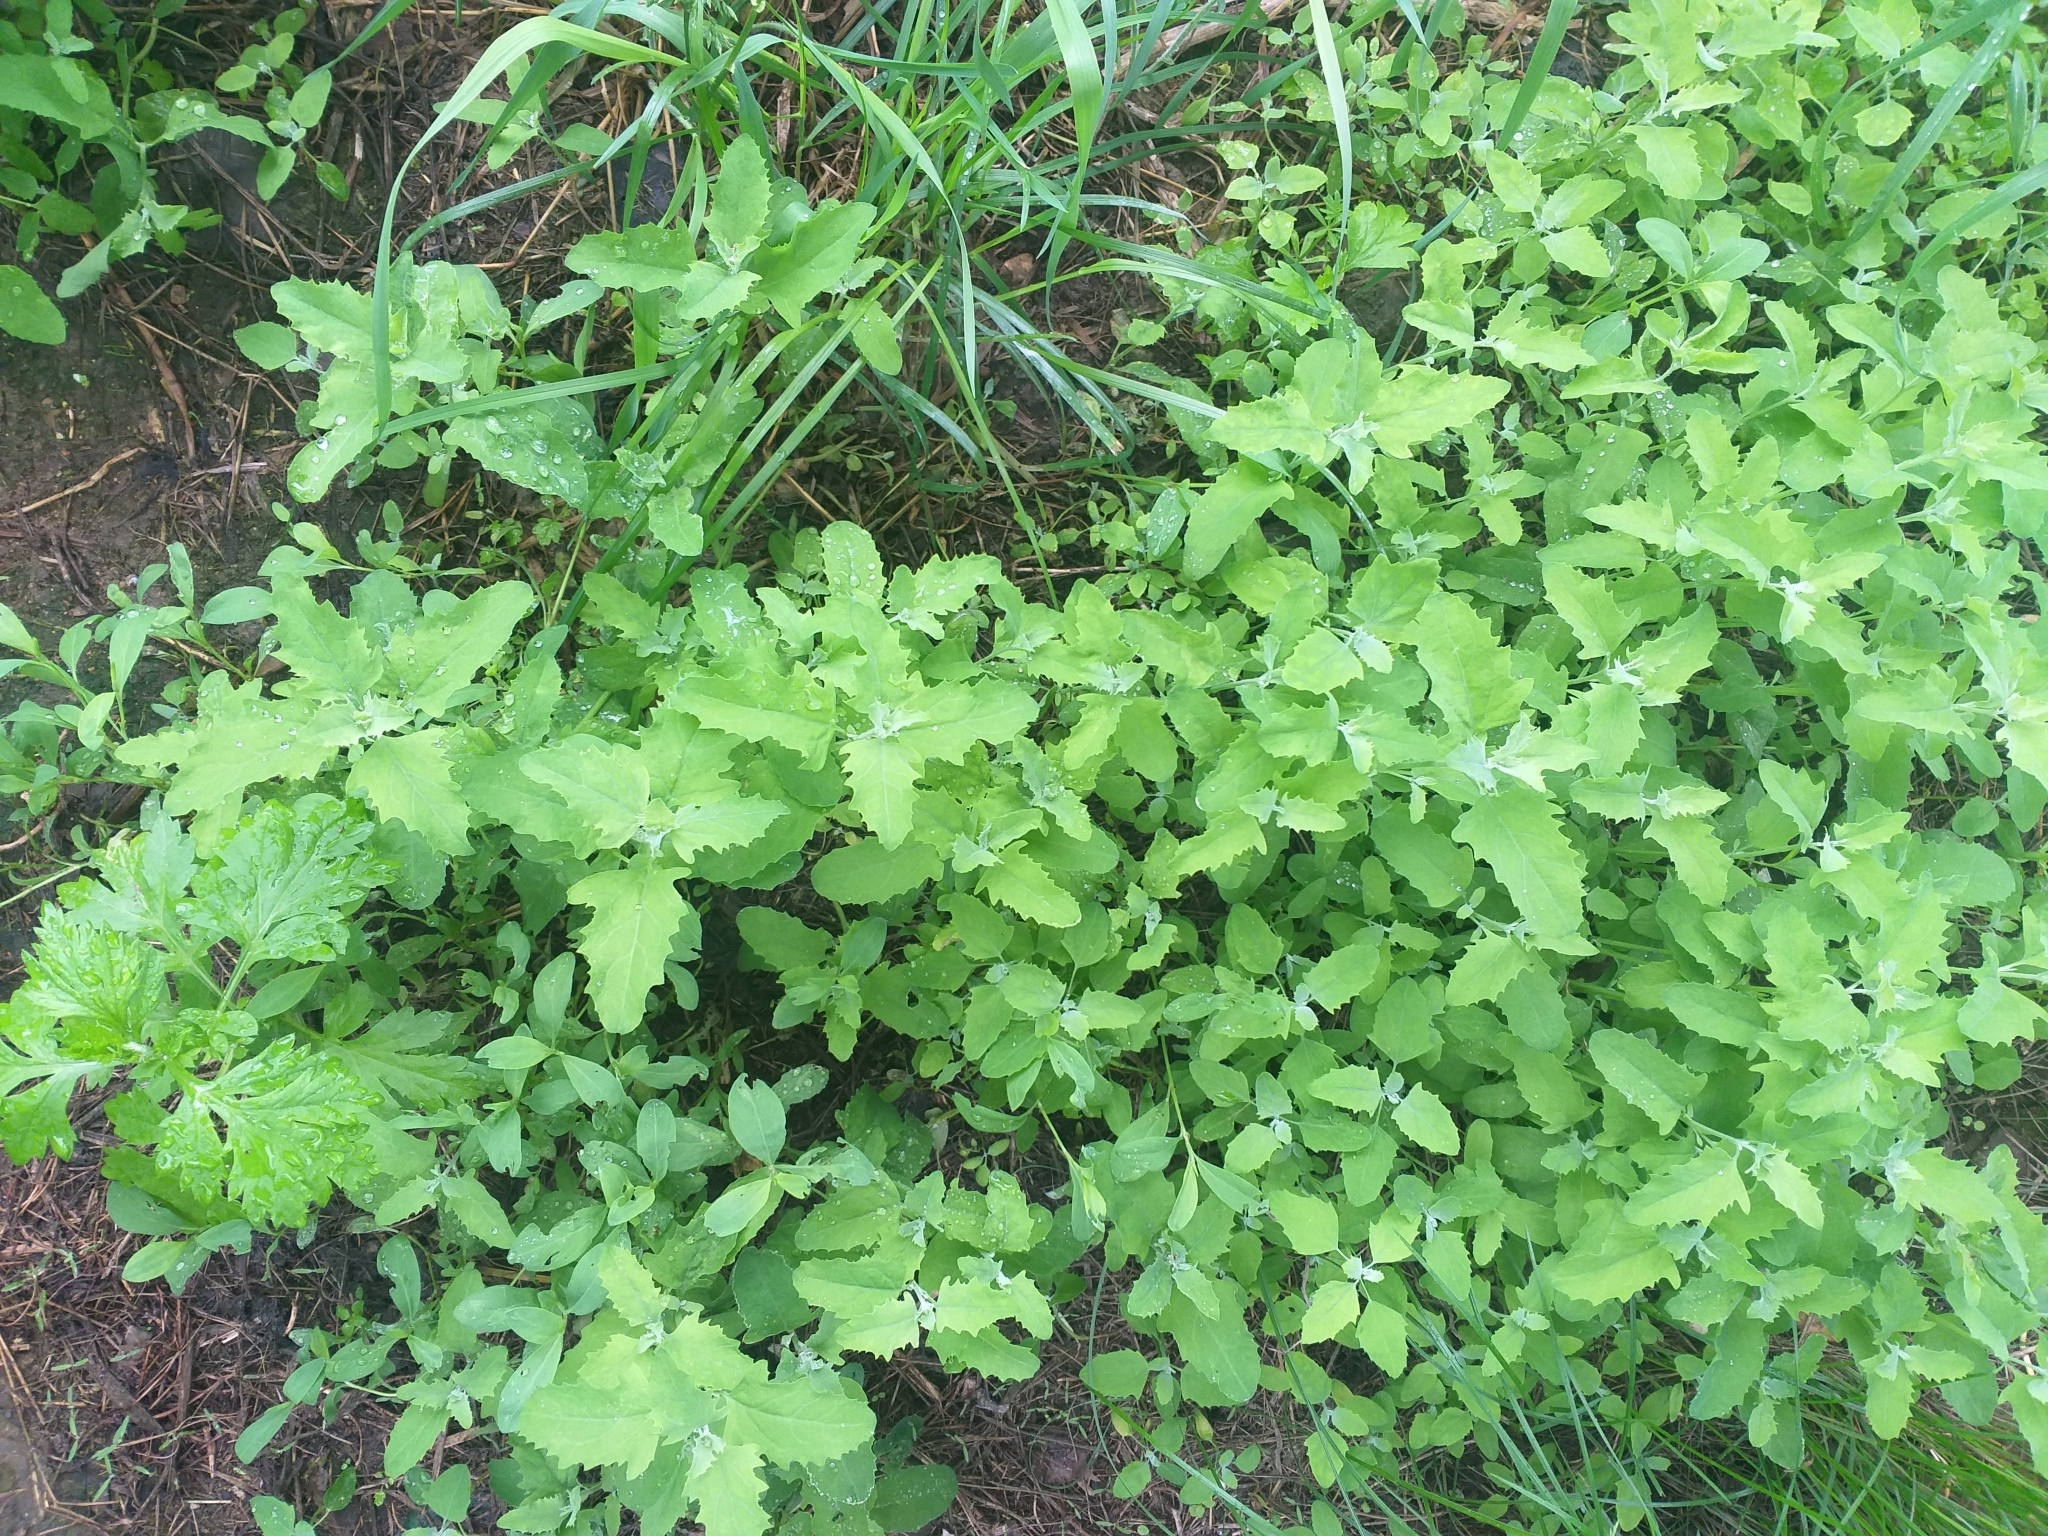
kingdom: Plantae
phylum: Tracheophyta
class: Magnoliopsida
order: Caryophyllales
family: Amaranthaceae
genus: Atriplex
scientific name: Atriplex tatarica
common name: Tatarian orache
